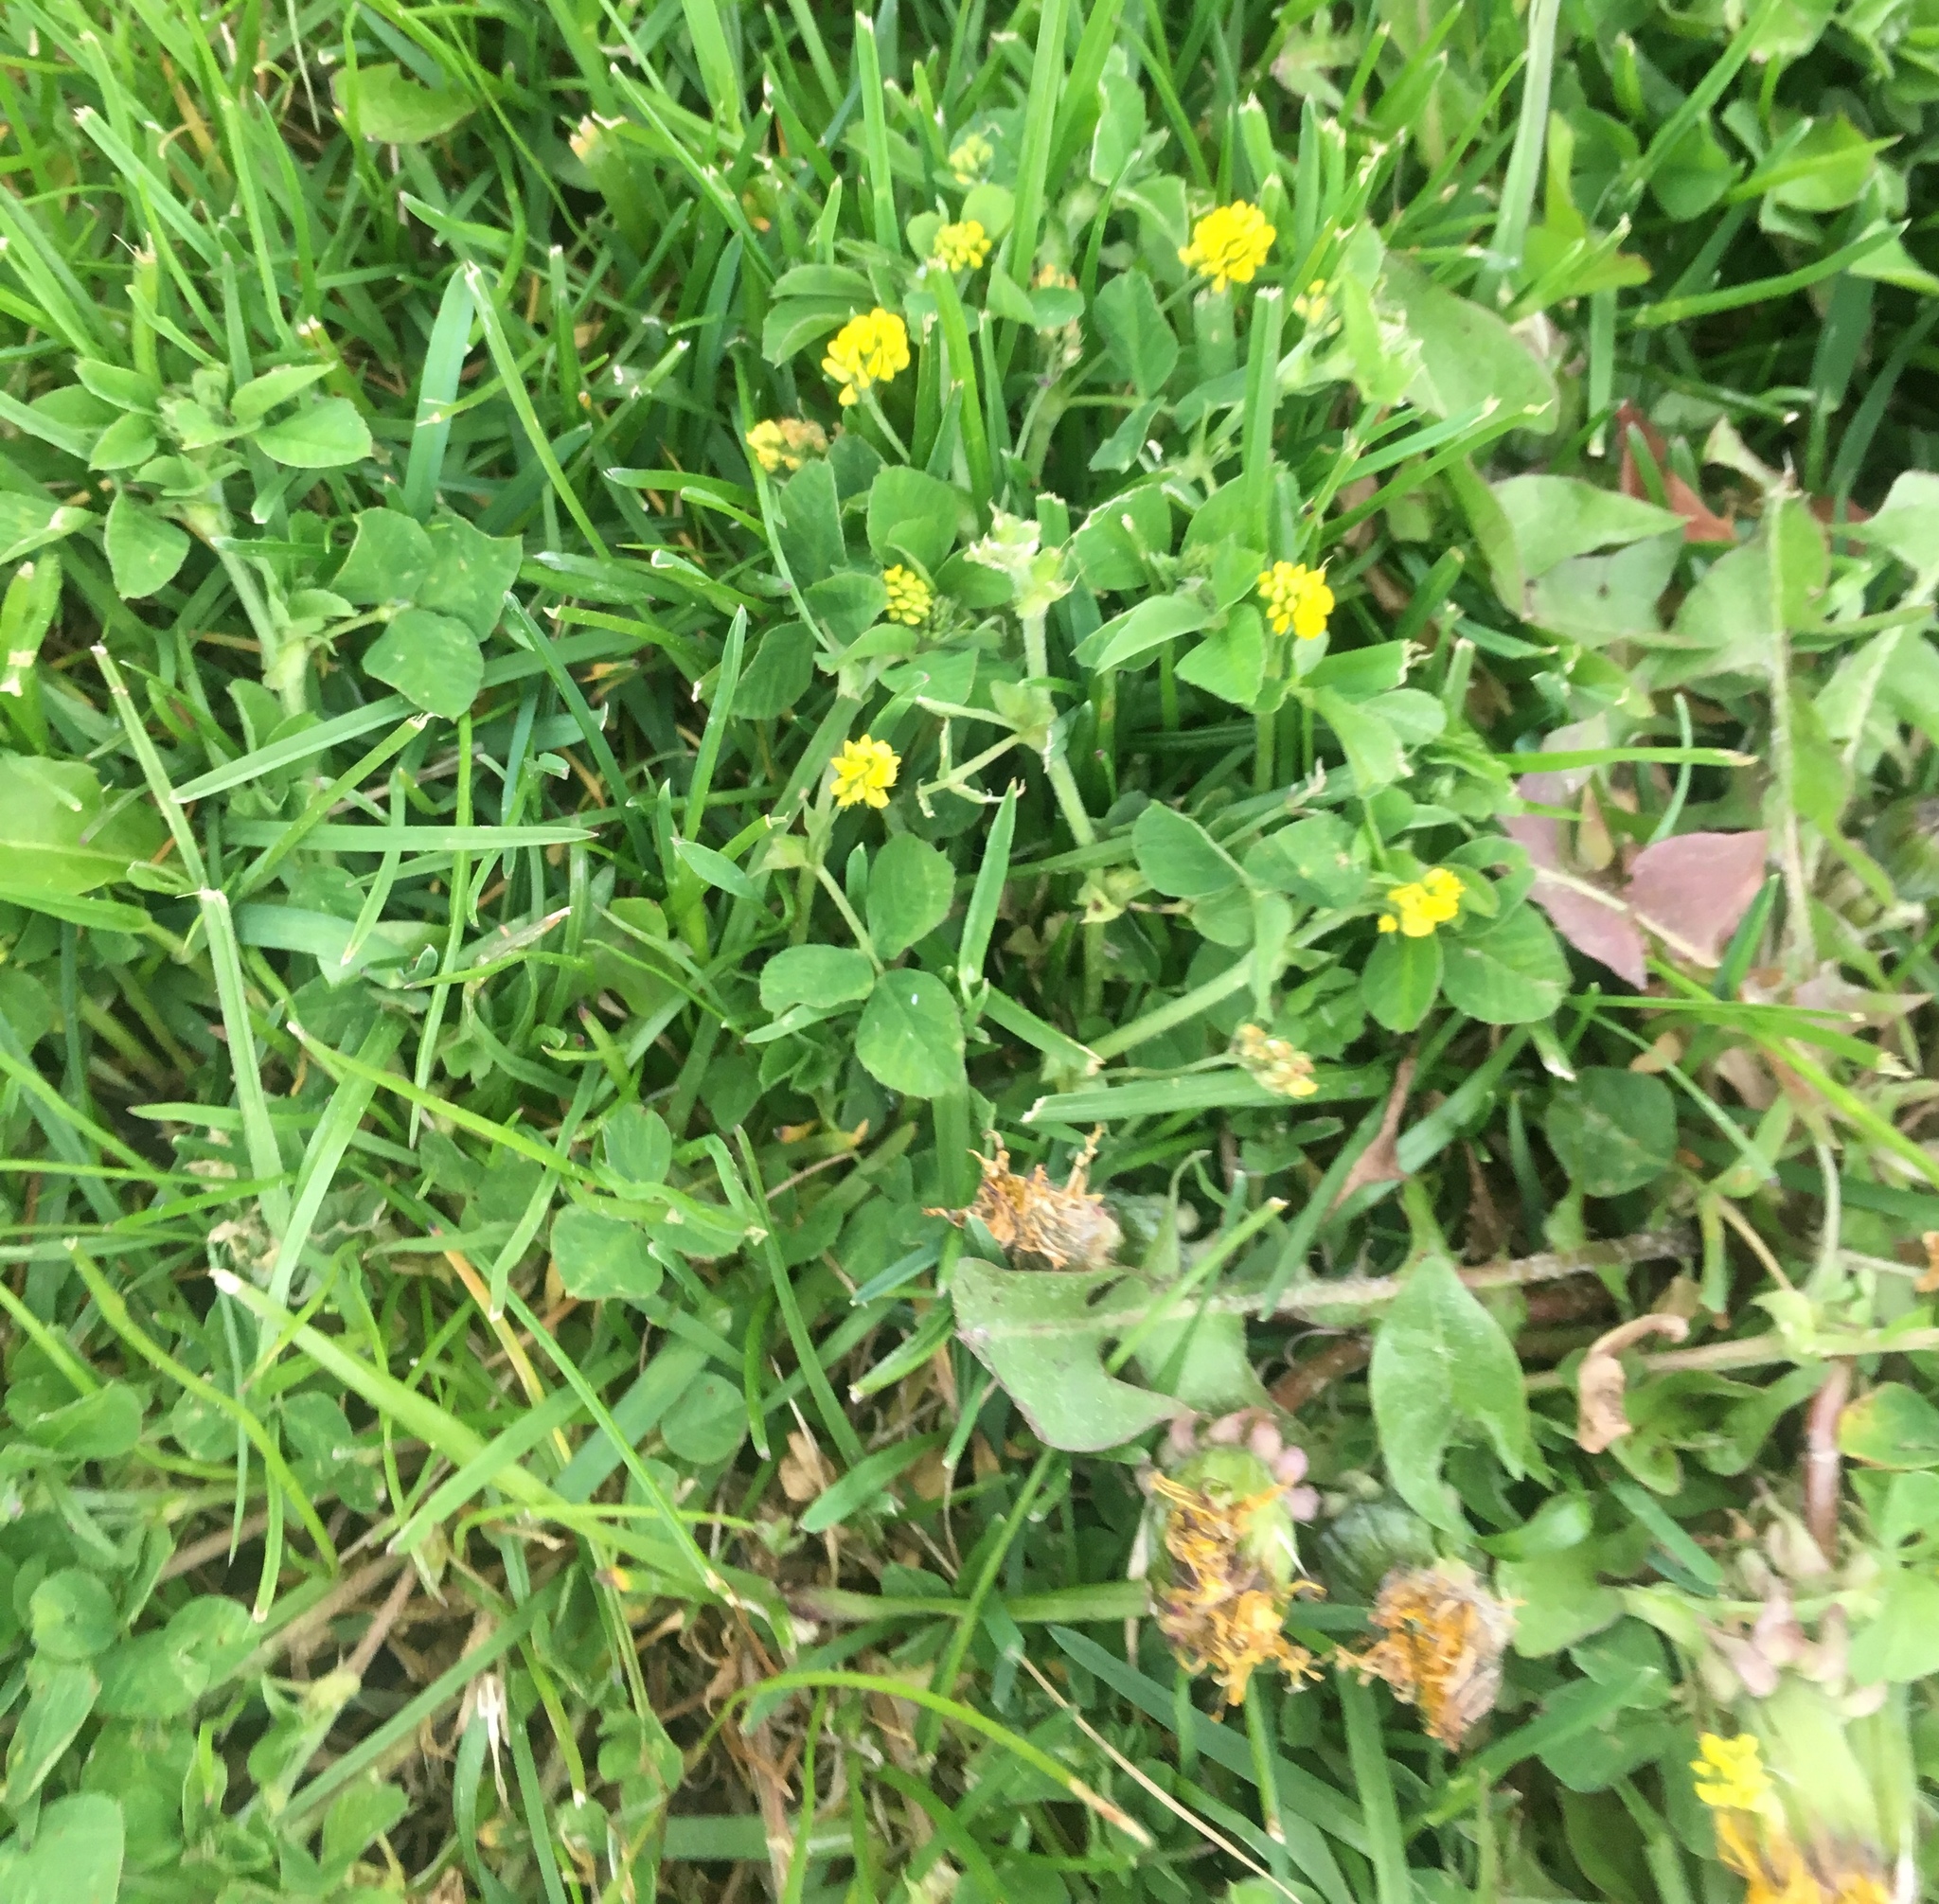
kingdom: Plantae
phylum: Tracheophyta
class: Magnoliopsida
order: Fabales
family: Fabaceae
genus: Medicago
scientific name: Medicago lupulina
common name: Black medick
